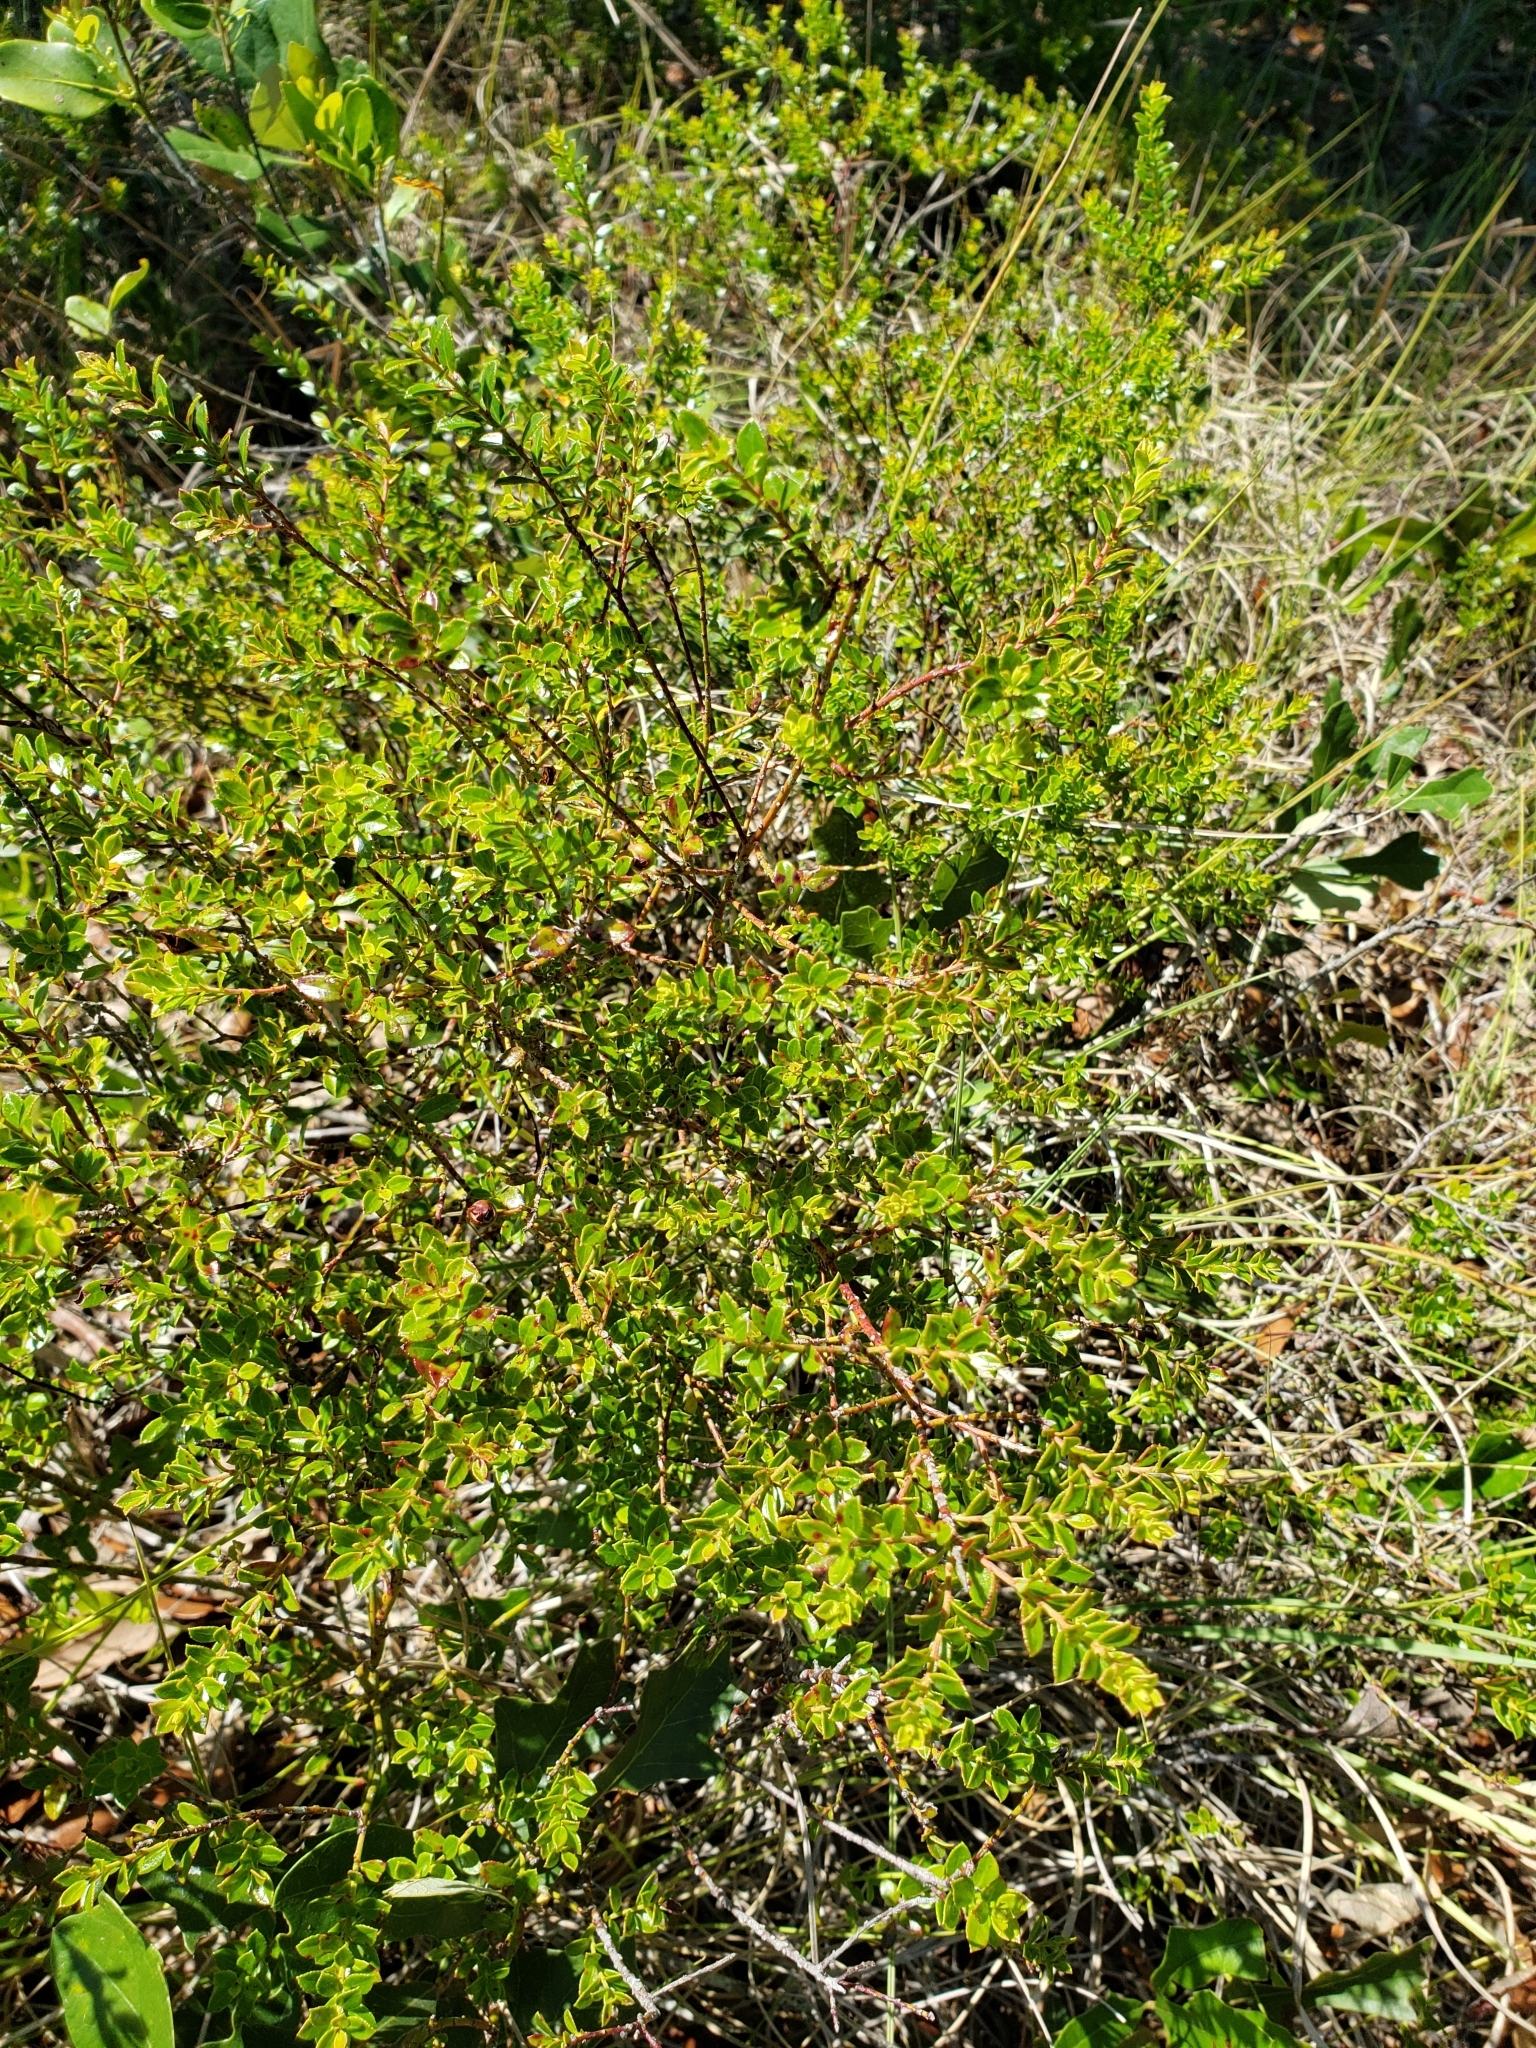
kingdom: Plantae
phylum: Tracheophyta
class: Magnoliopsida
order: Ericales
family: Ericaceae
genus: Vaccinium
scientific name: Vaccinium myrsinites
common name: Evergreen blueberry
